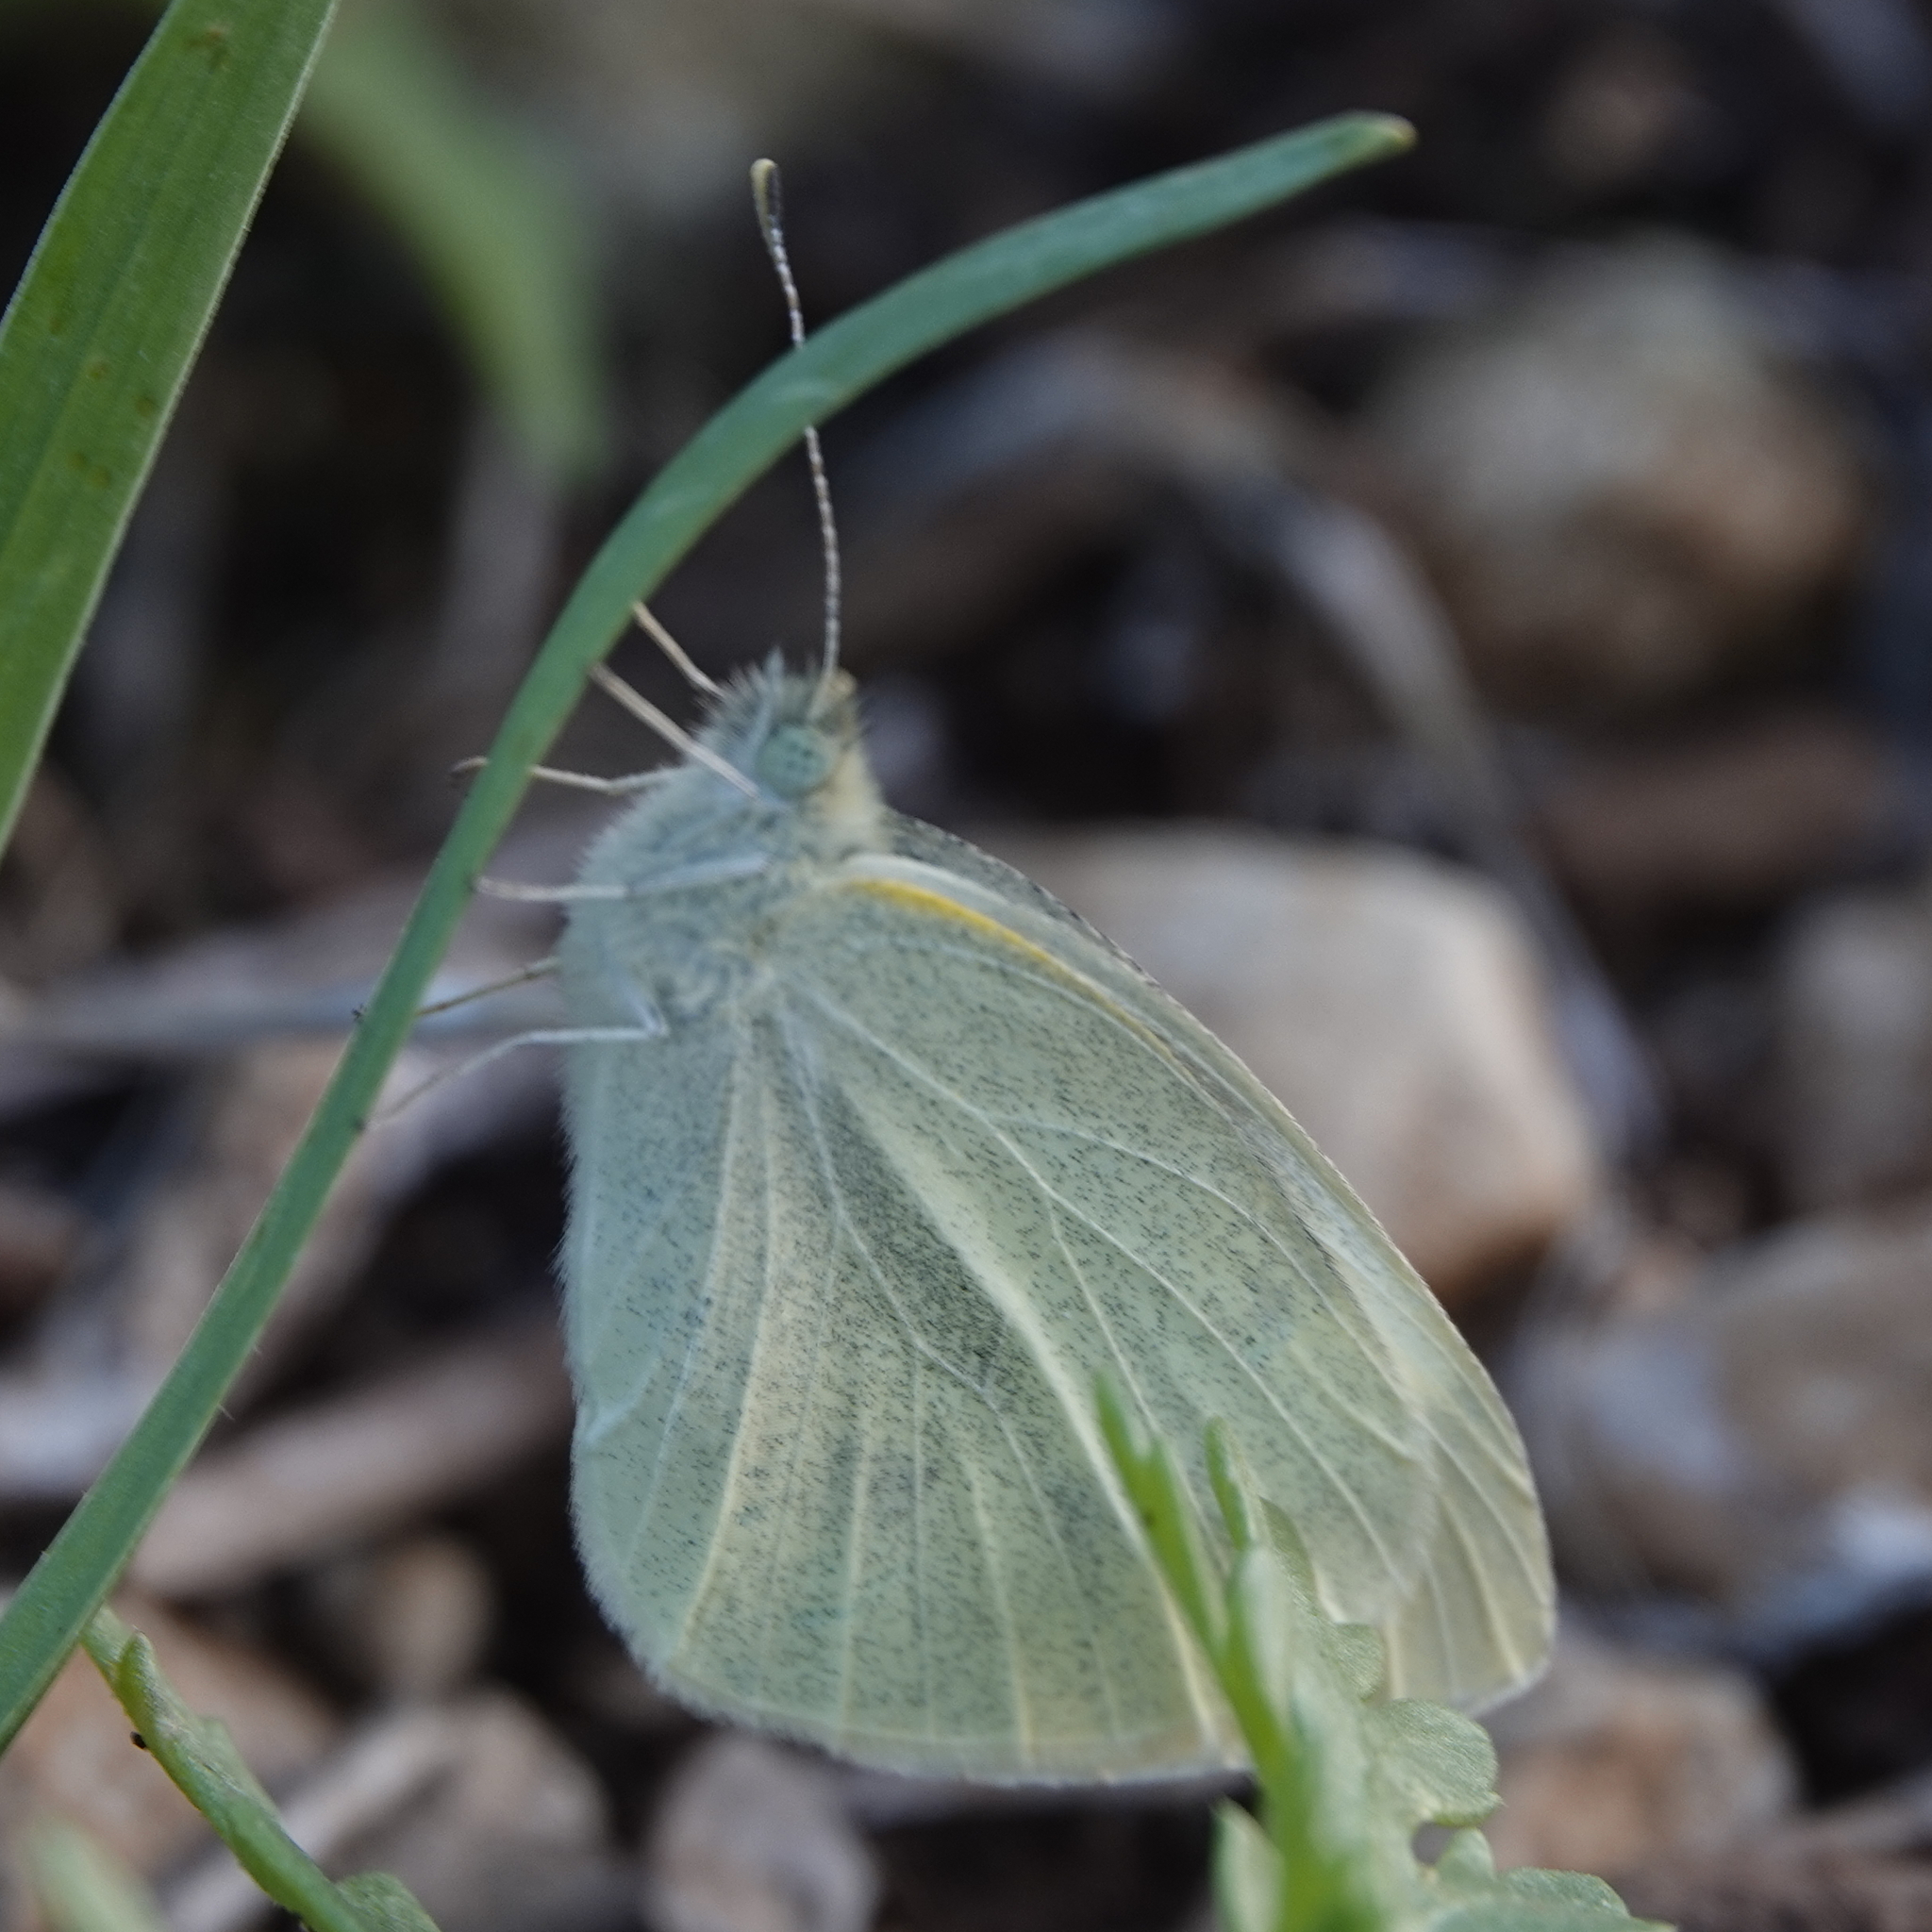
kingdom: Animalia
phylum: Arthropoda
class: Insecta
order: Lepidoptera
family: Pieridae
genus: Pieris
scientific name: Pieris rapae
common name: Small white
